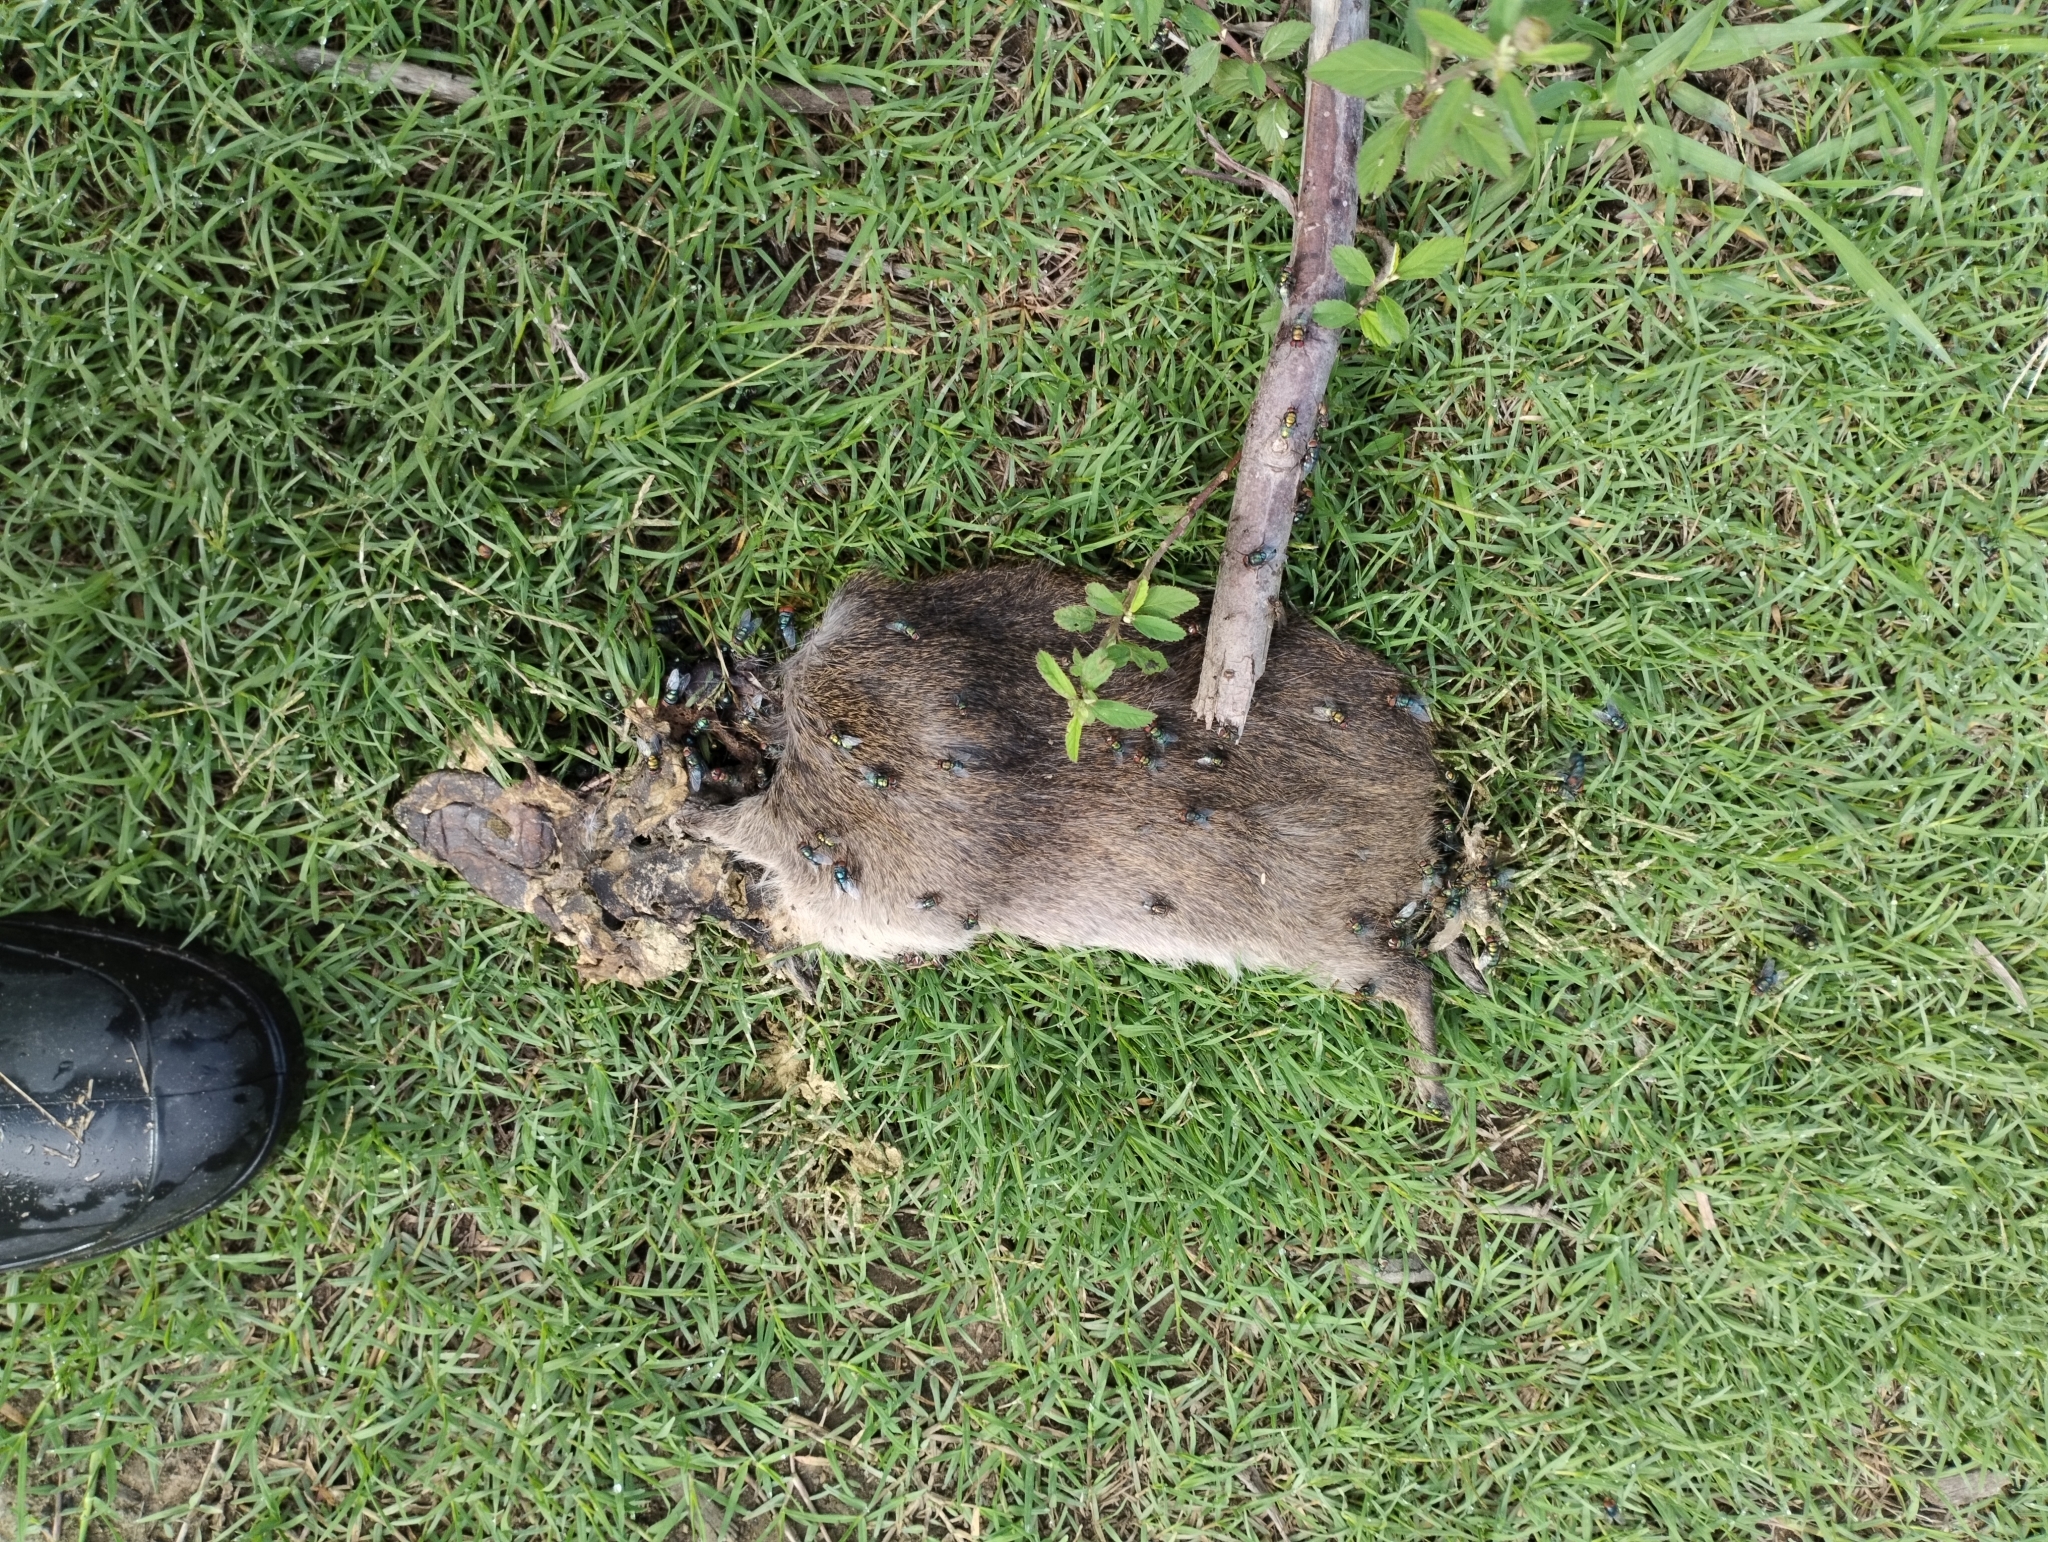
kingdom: Animalia
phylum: Chordata
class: Mammalia
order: Rodentia
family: Caviidae
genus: Cavia
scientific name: Cavia aperea
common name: Brazilian guinea pig
